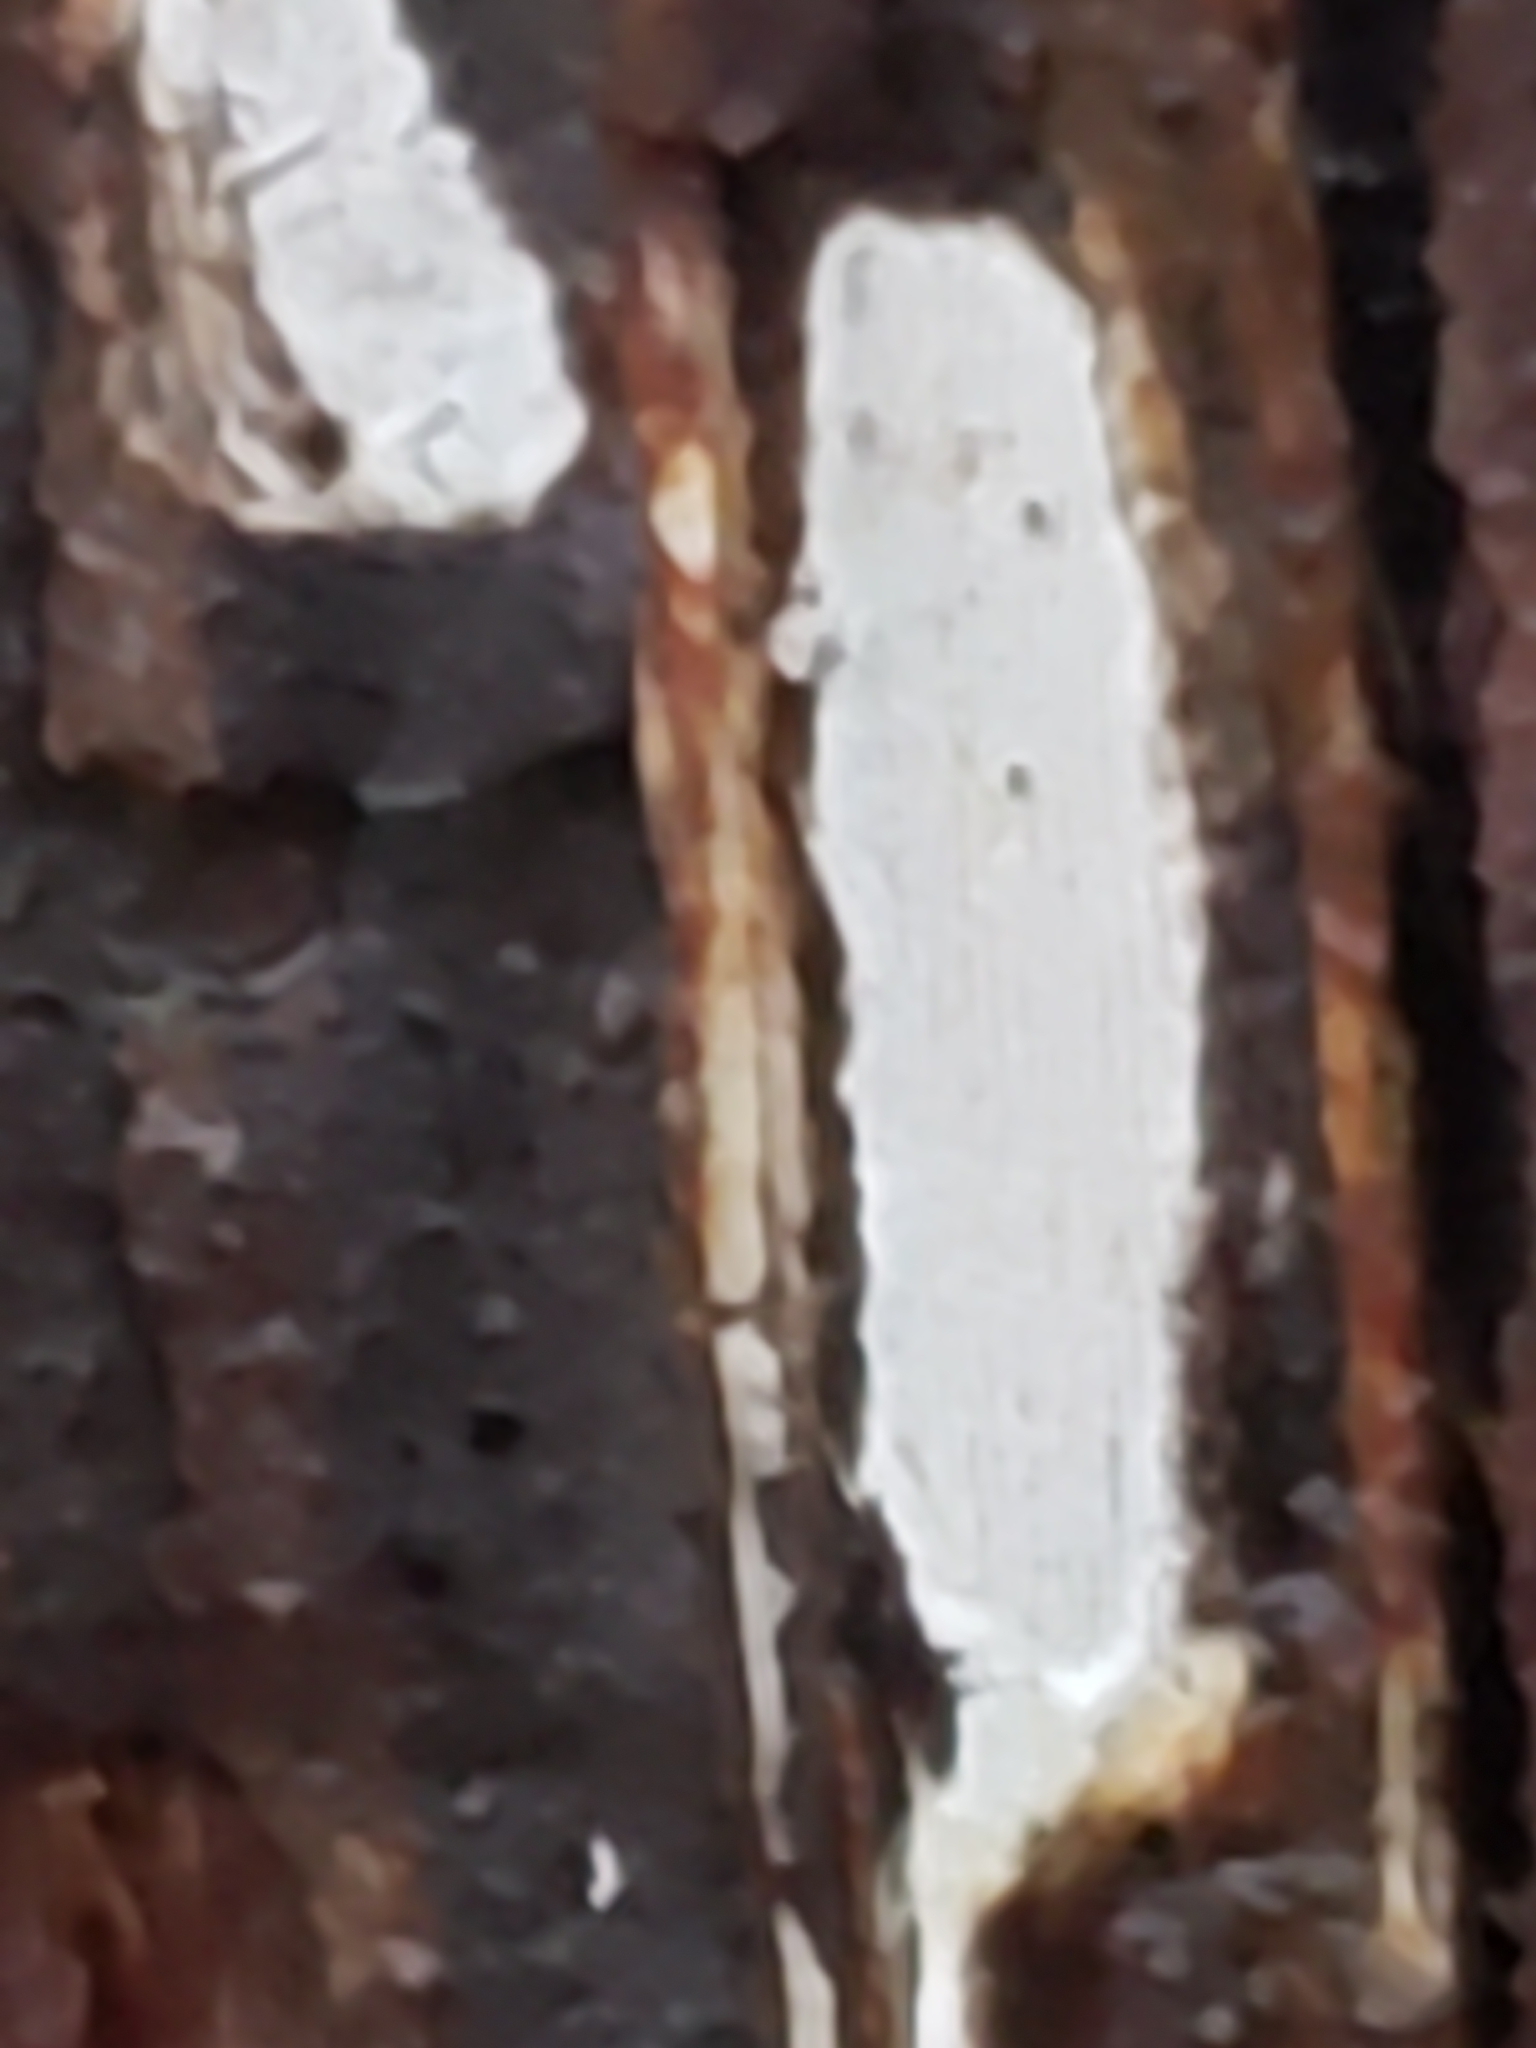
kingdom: Fungi
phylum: Basidiomycota
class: Agaricomycetes
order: Agaricales
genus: Dendrothele
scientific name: Dendrothele nivosa
